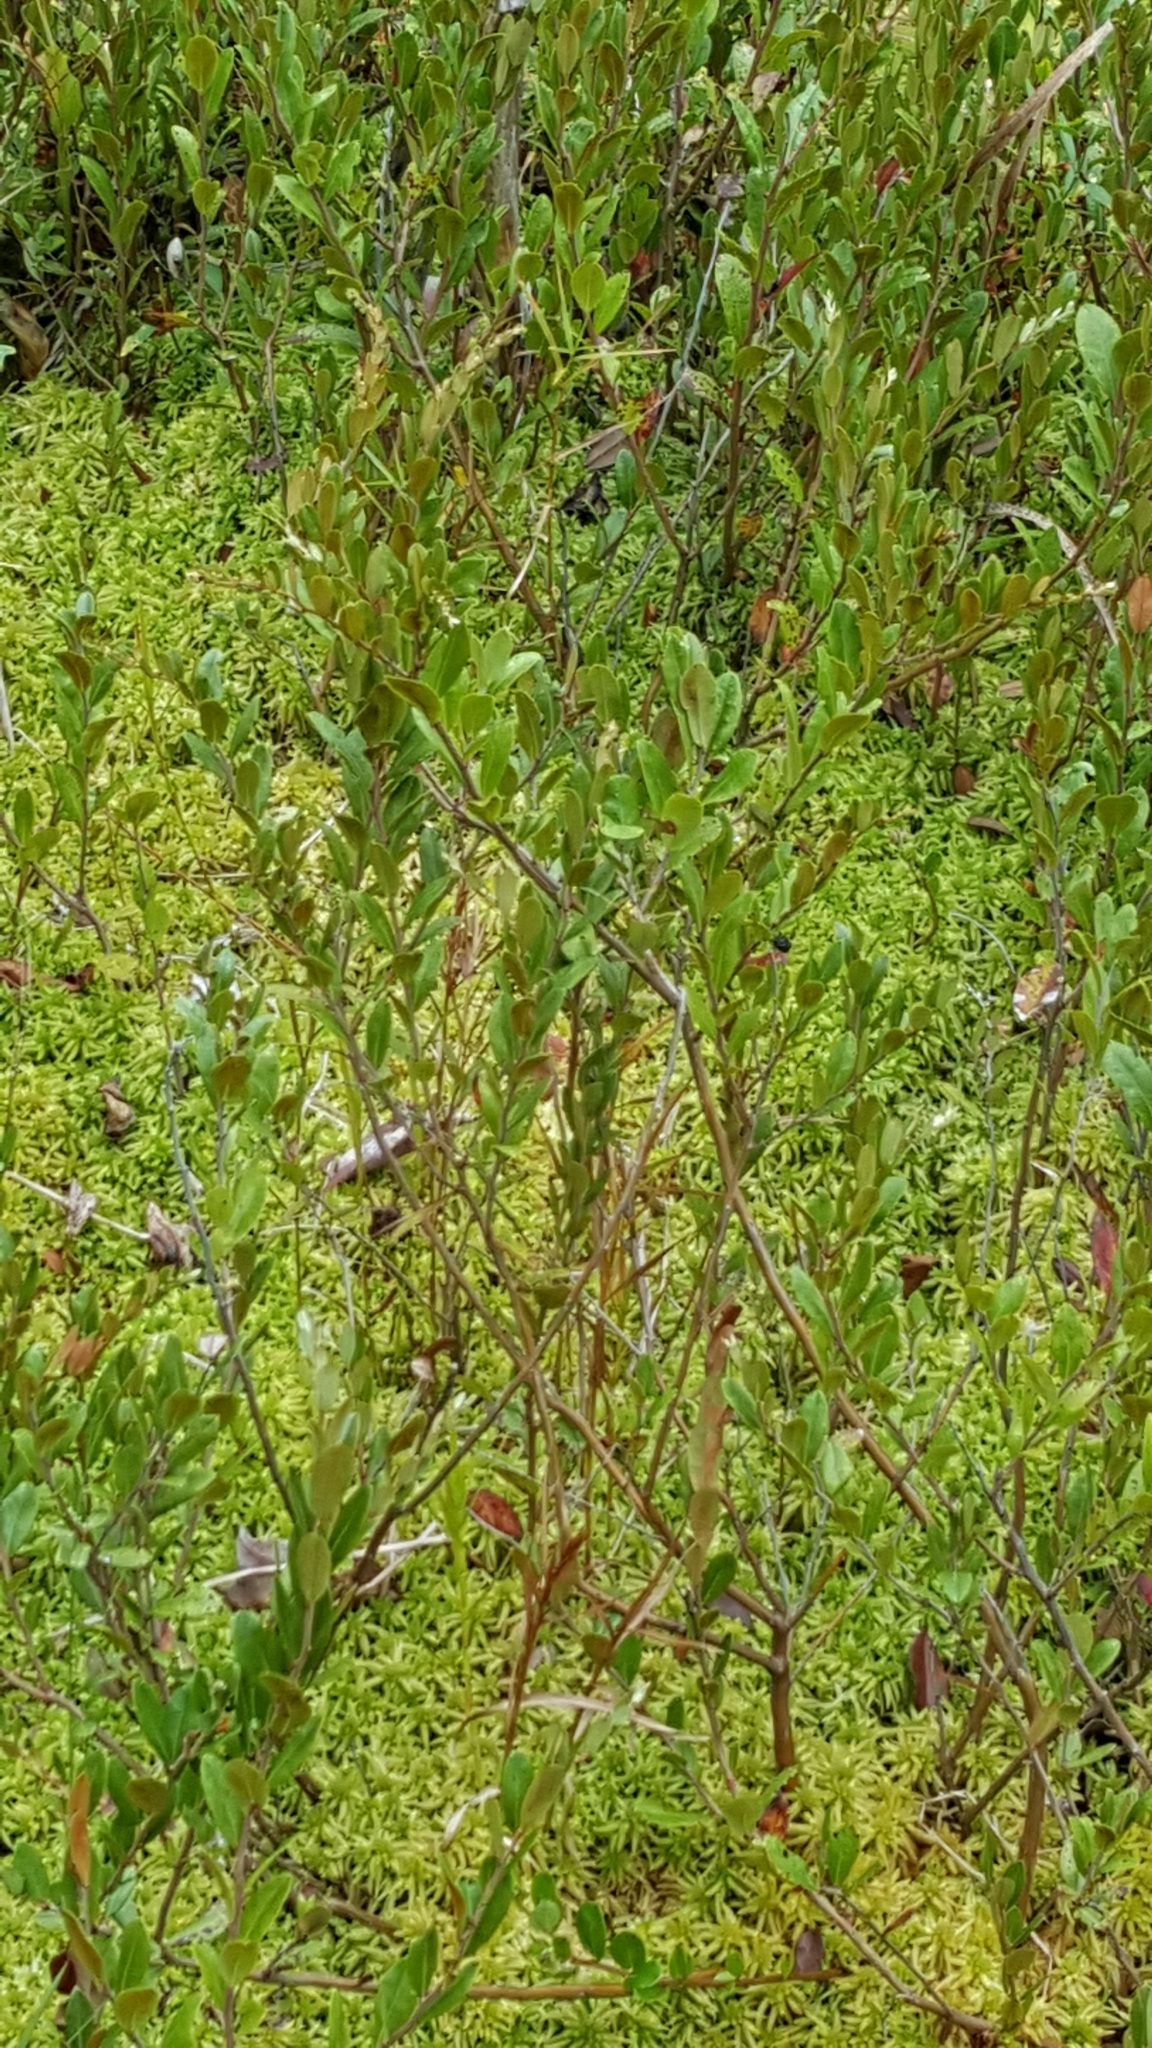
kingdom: Plantae
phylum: Tracheophyta
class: Magnoliopsida
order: Ericales
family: Ericaceae
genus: Chamaedaphne
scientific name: Chamaedaphne calyculata
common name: Leatherleaf
